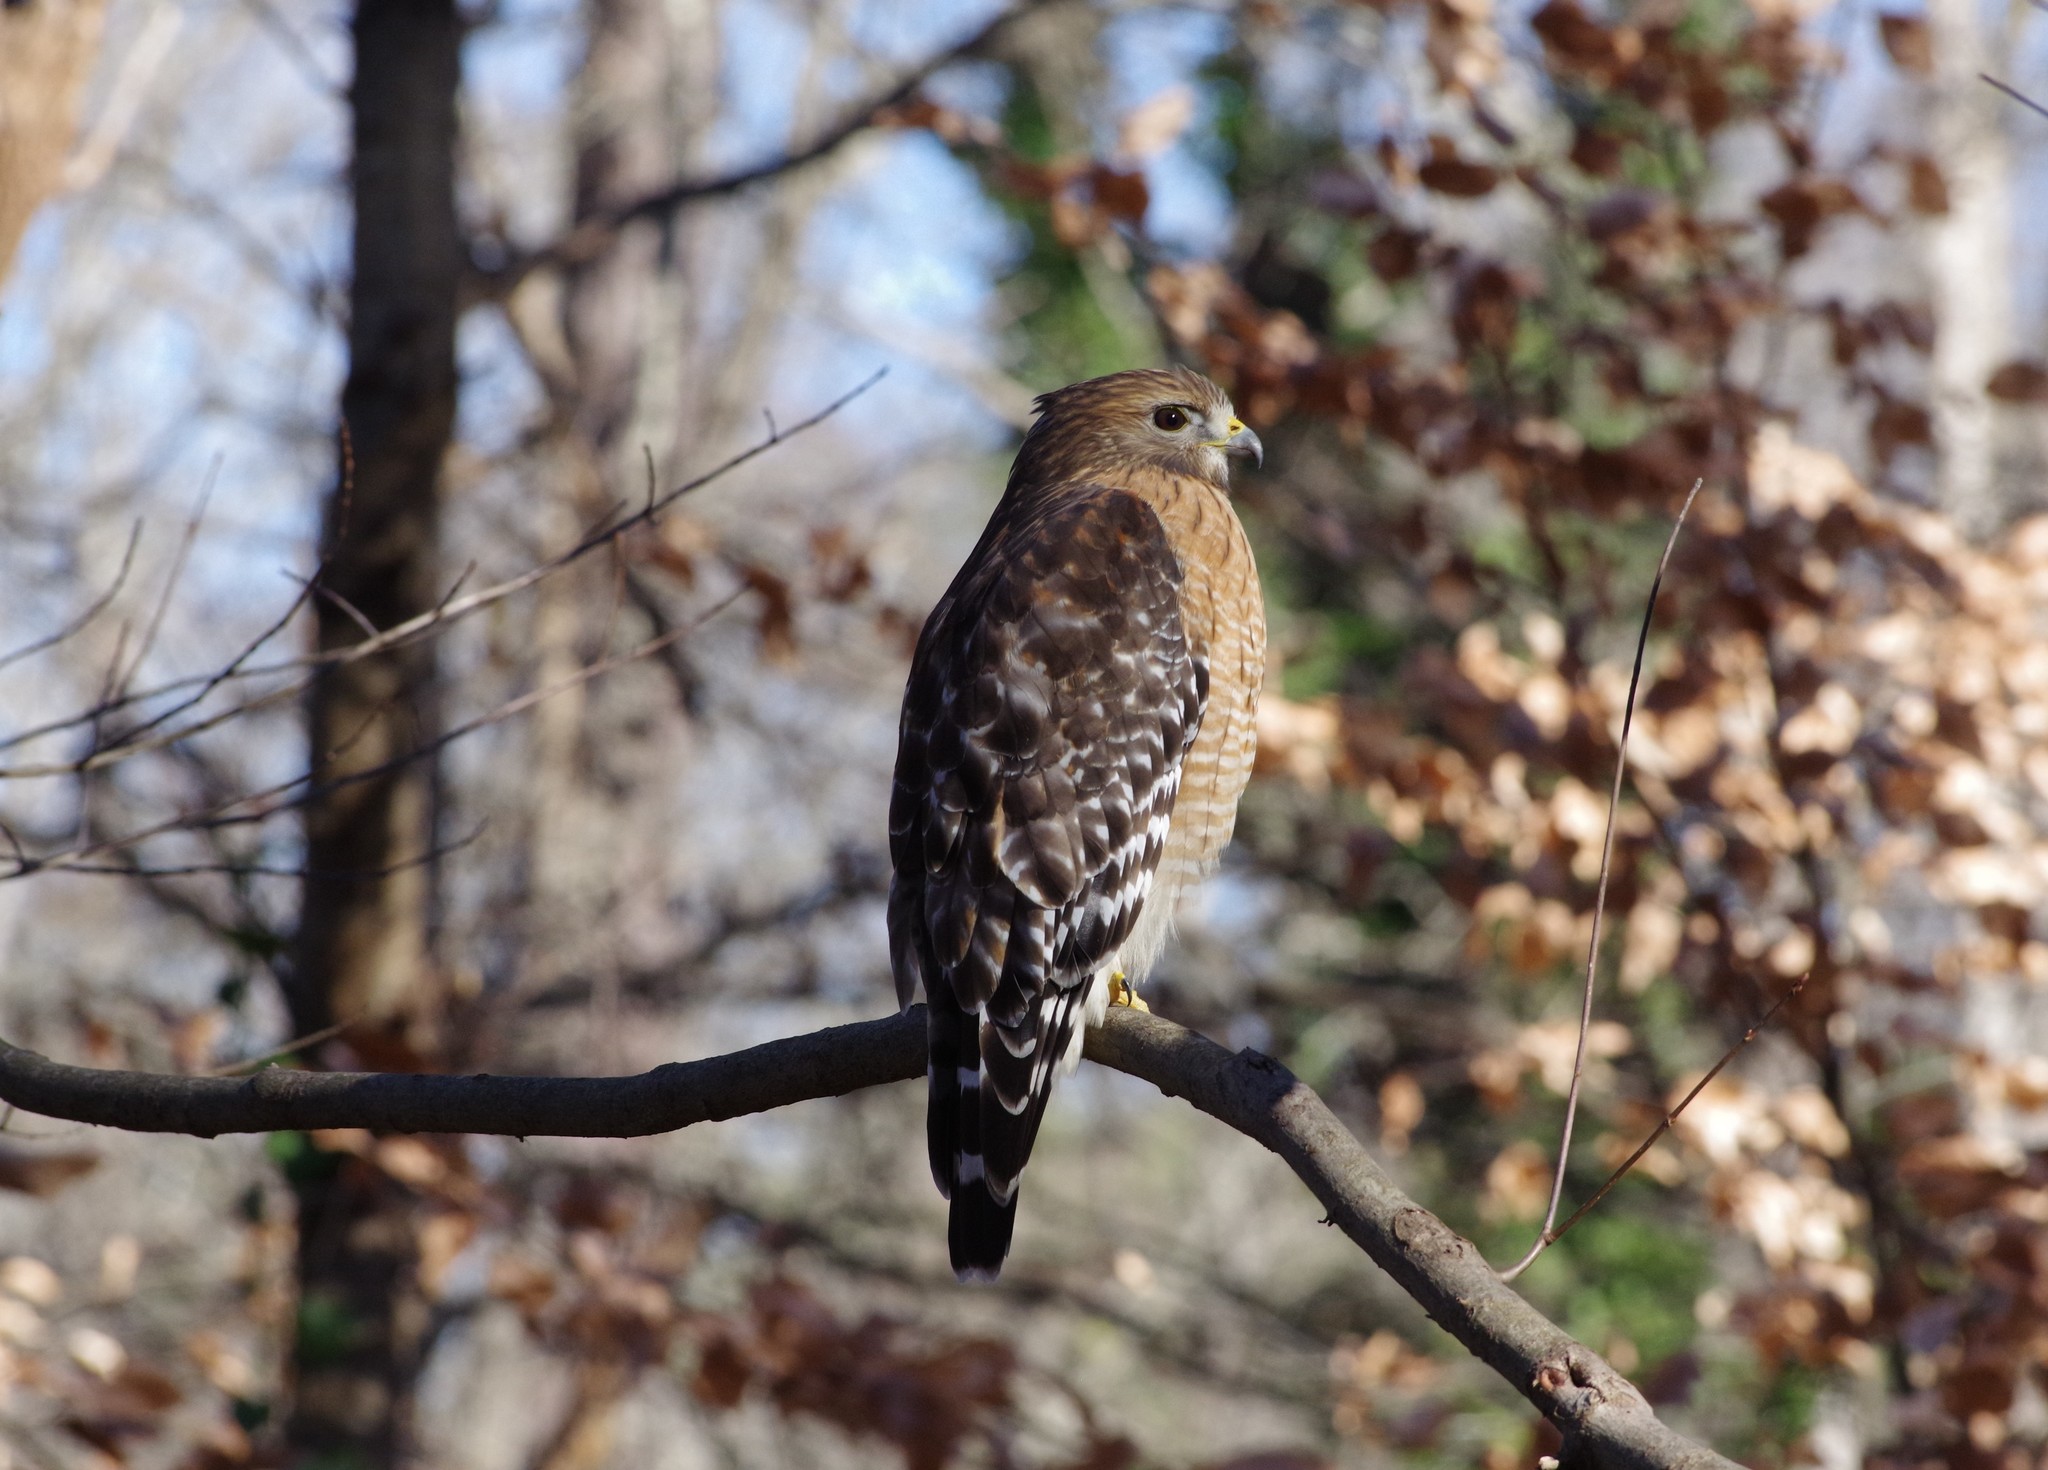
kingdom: Animalia
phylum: Chordata
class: Aves
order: Accipitriformes
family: Accipitridae
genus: Buteo
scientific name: Buteo lineatus
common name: Red-shouldered hawk
